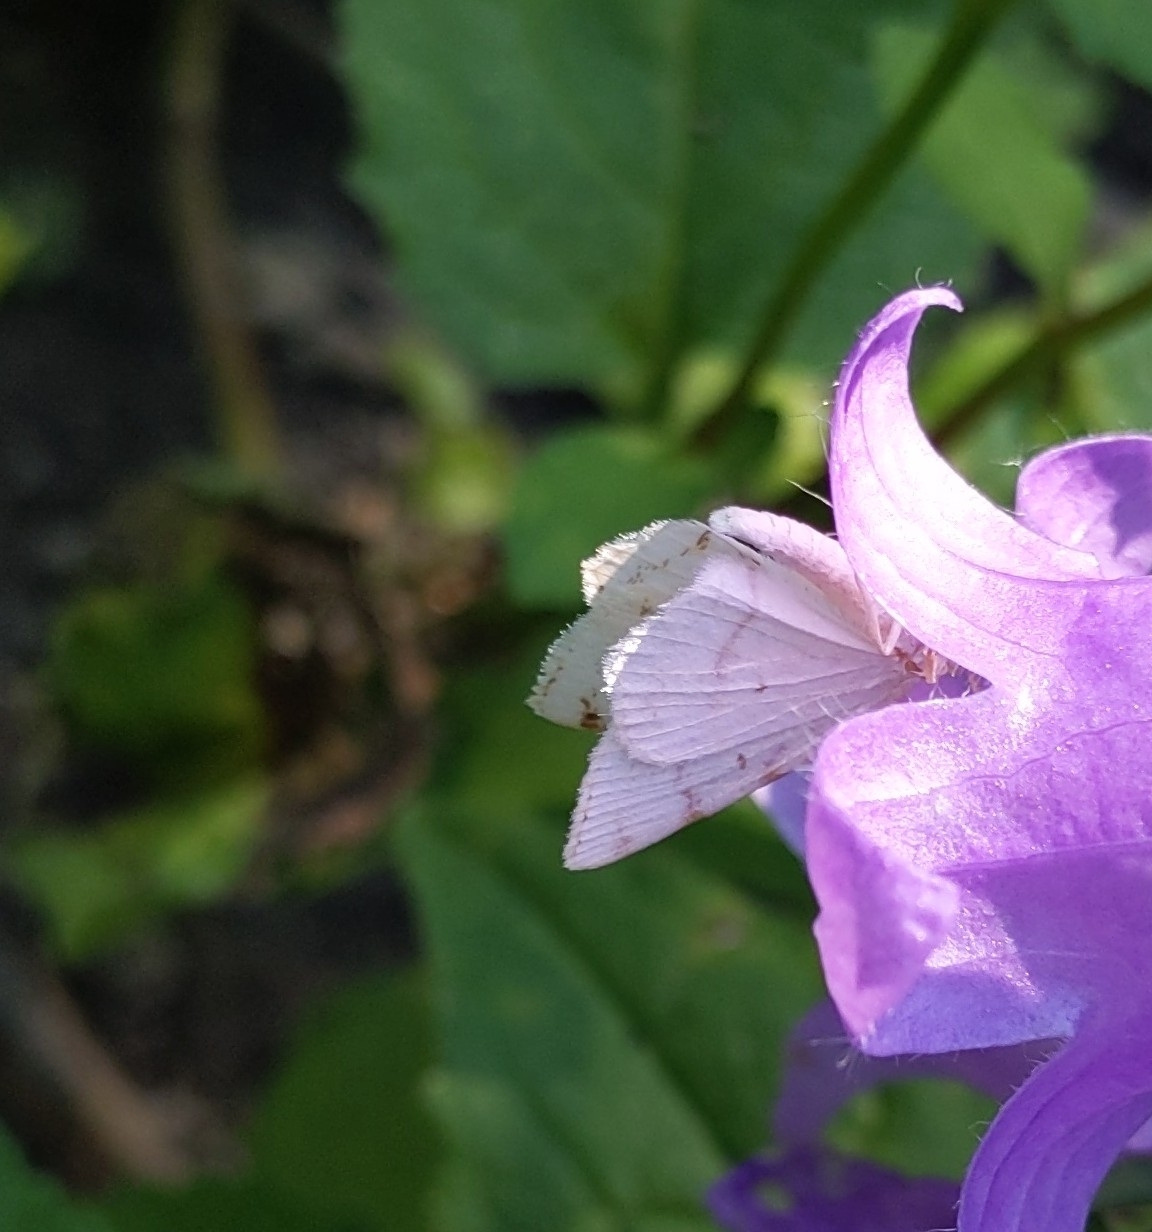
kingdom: Animalia
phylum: Arthropoda
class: Insecta
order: Lepidoptera
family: Geometridae
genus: Macaria
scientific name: Macaria pustularia
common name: Lesser maple spanworm moth
